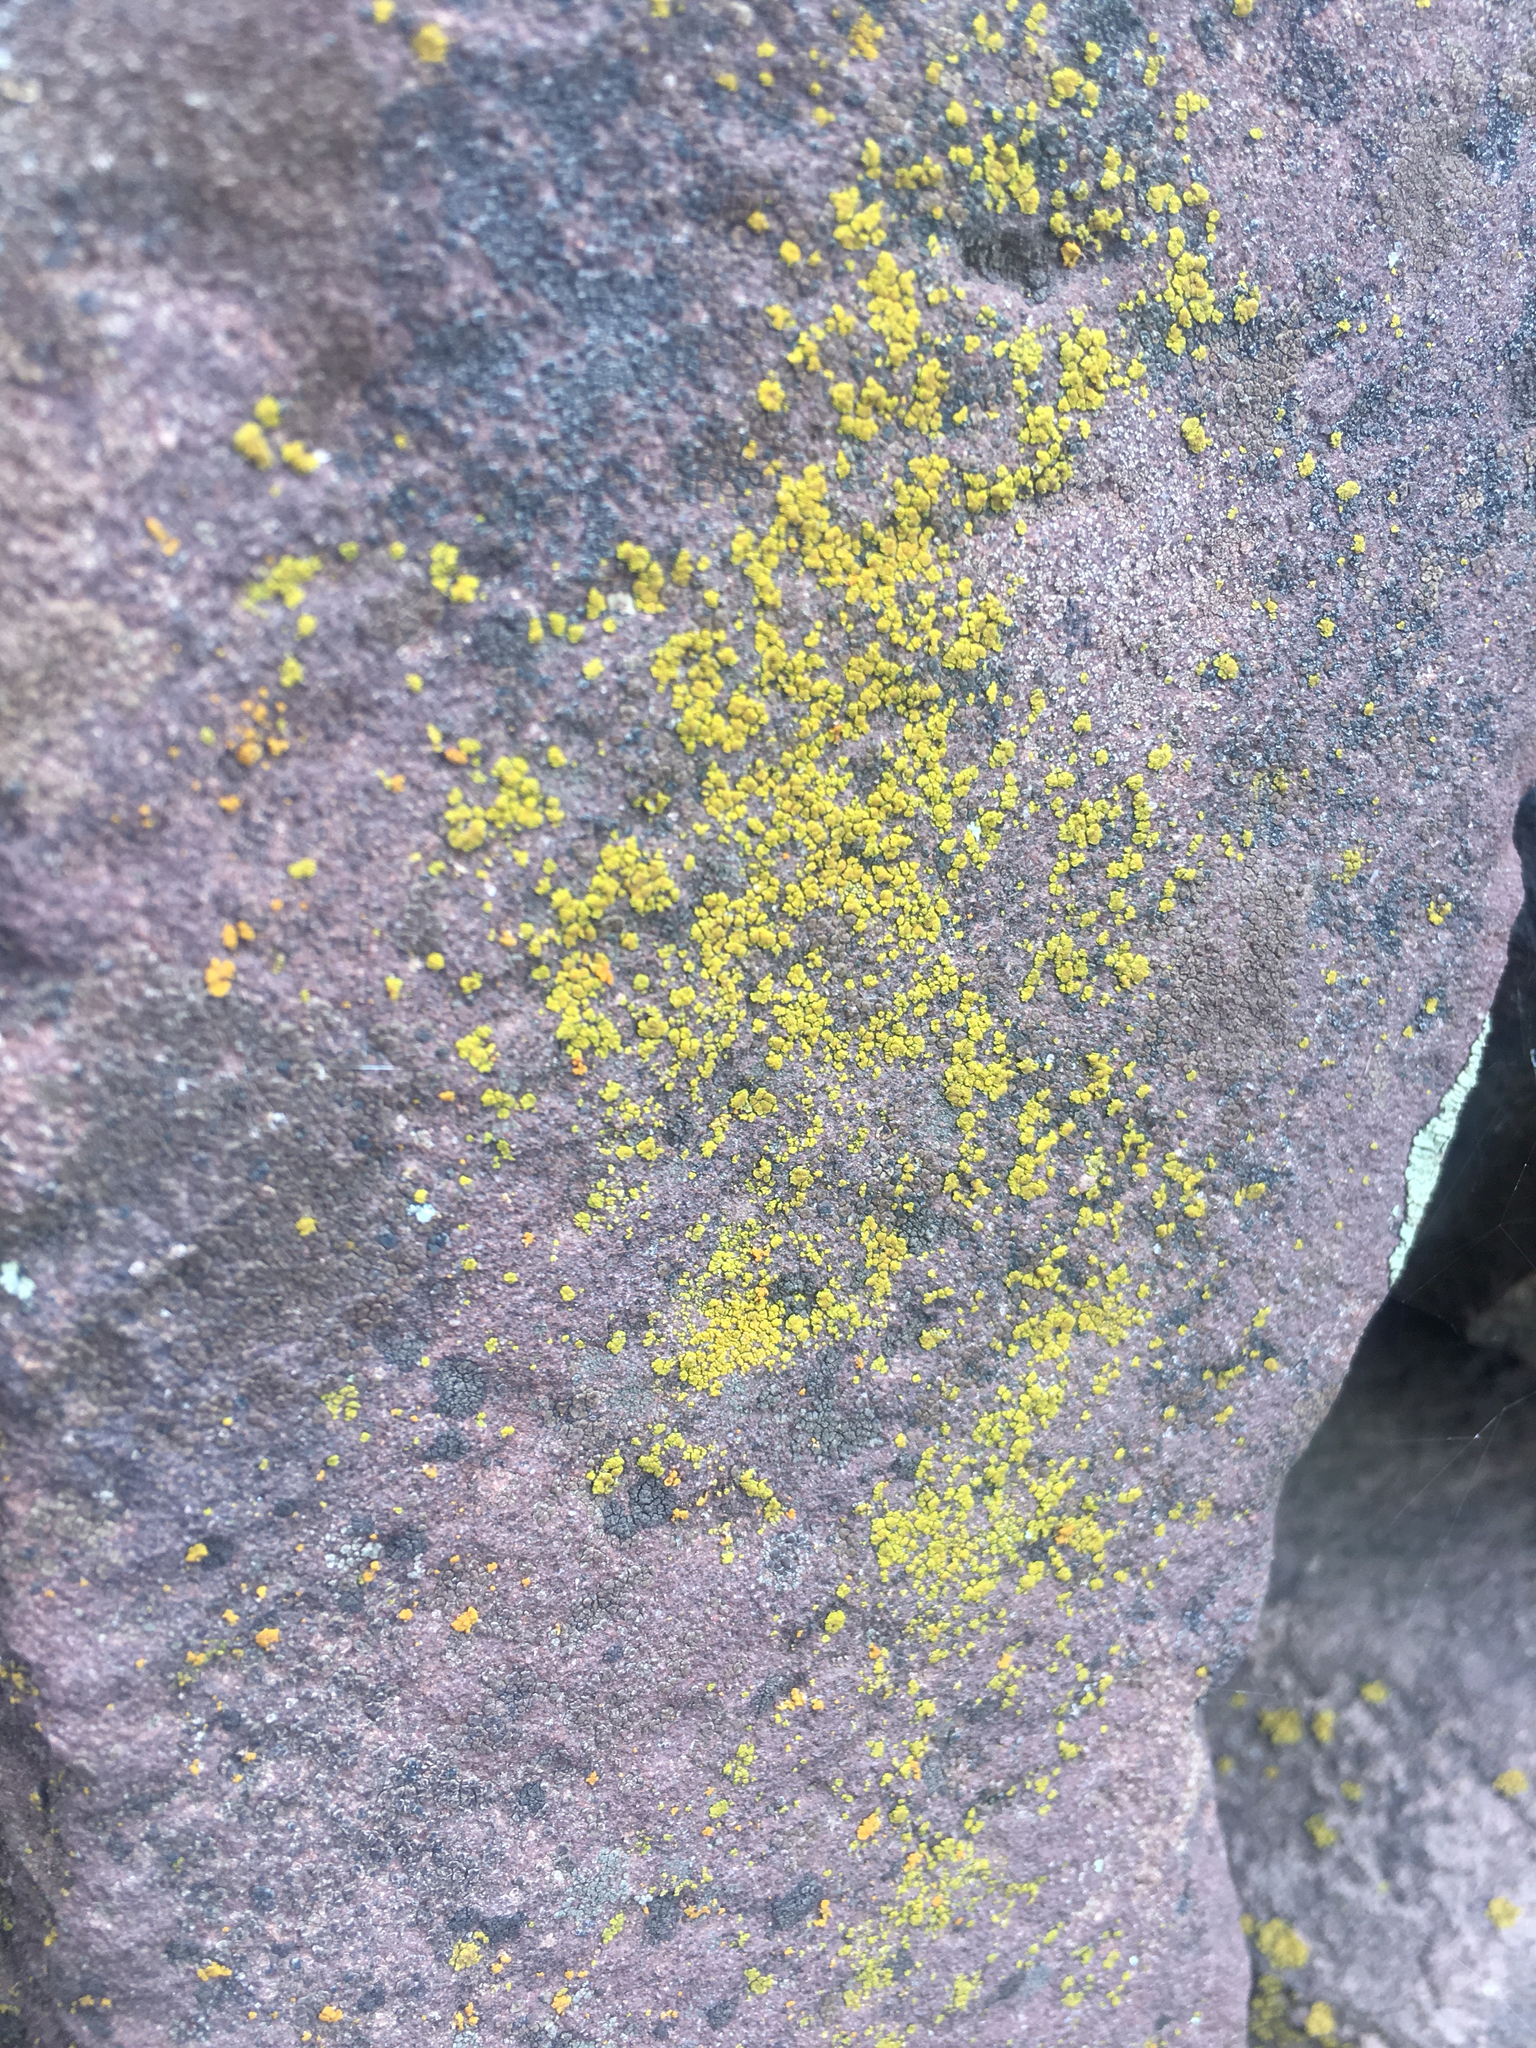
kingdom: Fungi
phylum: Ascomycota
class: Candelariomycetes
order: Candelariales
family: Candelariaceae
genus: Candelariella
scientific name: Candelariella vitellina
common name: Common goldspeck
